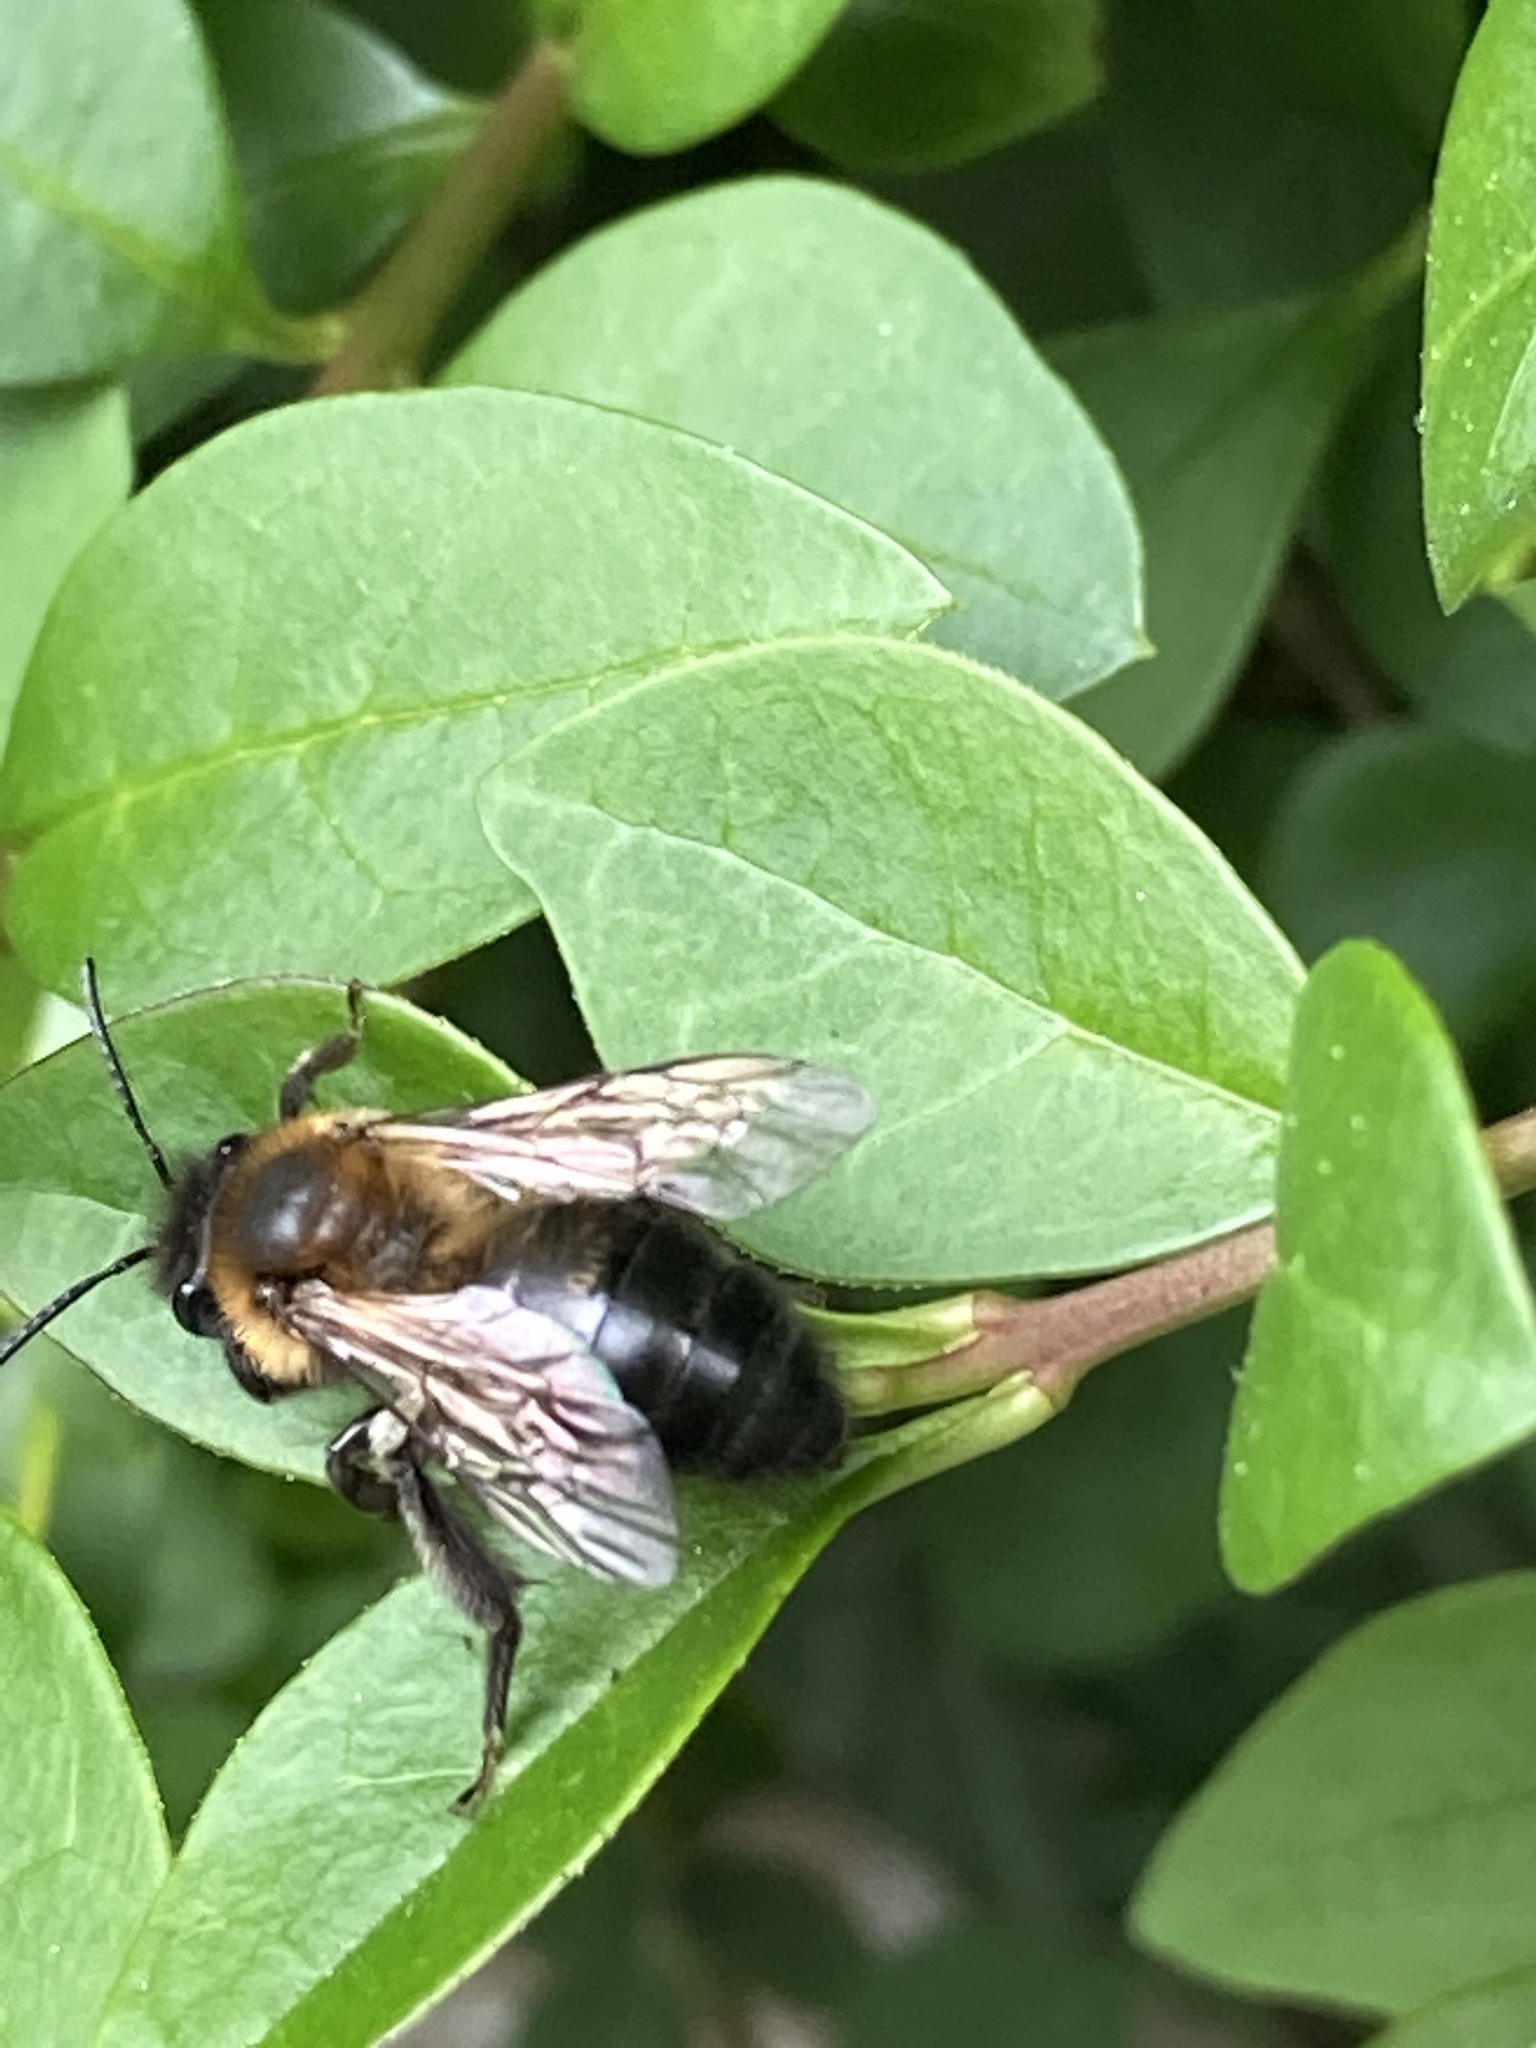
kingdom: Animalia
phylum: Arthropoda
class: Insecta
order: Hymenoptera
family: Andrenidae
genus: Andrena
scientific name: Andrena carantonica
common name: Chocolate mining bee
